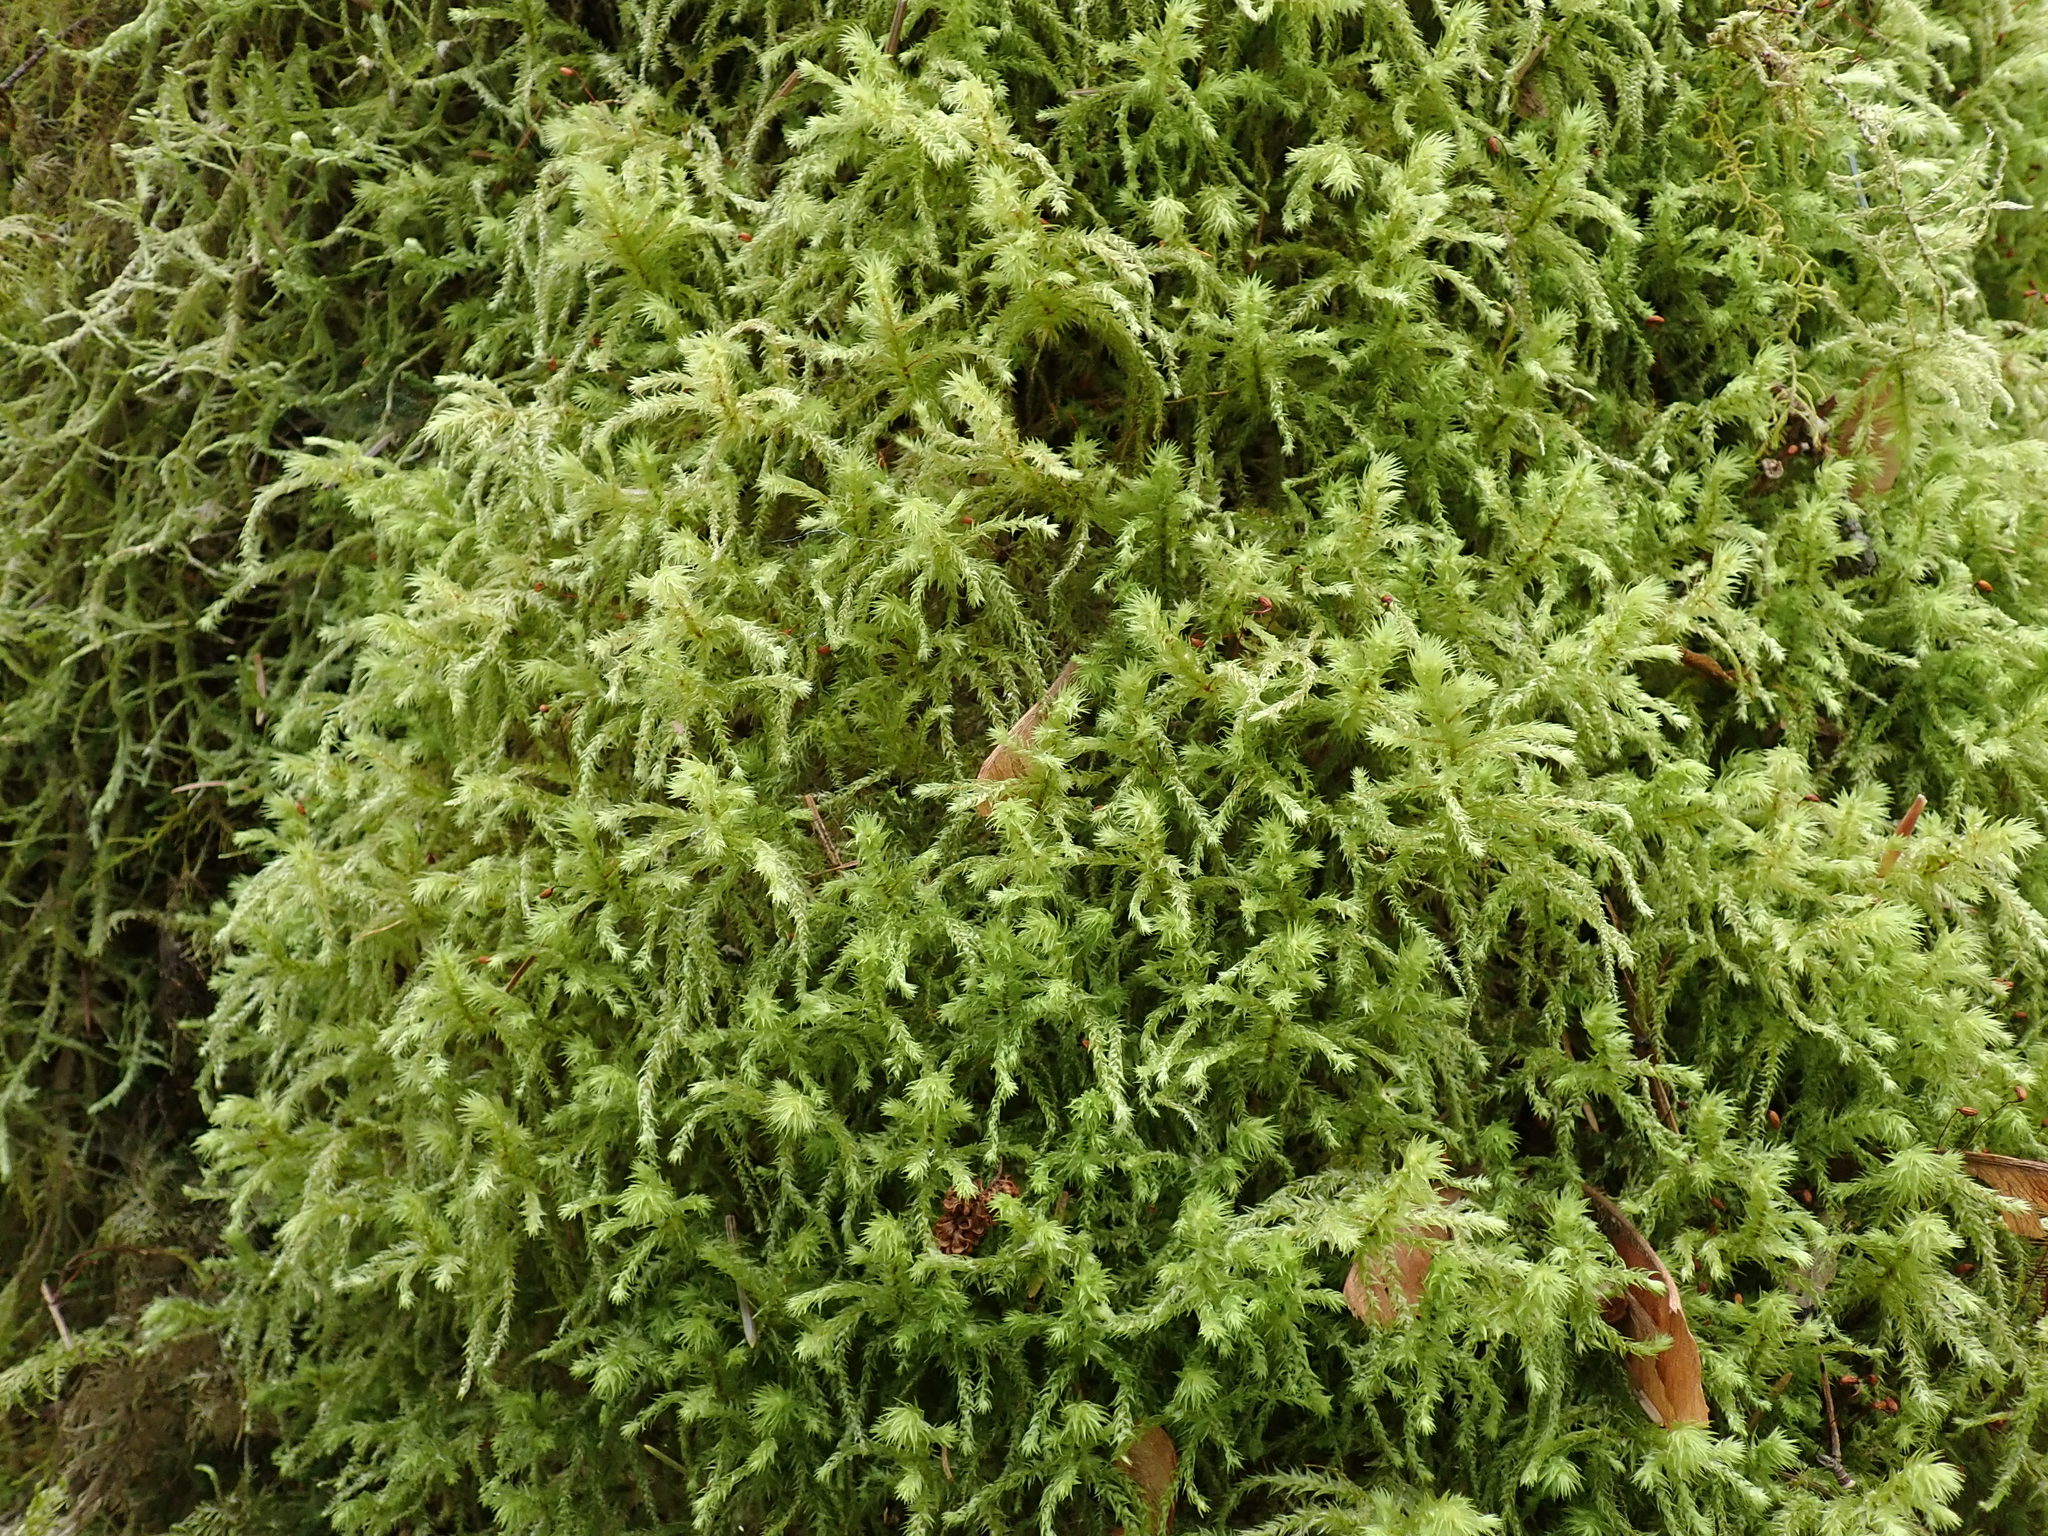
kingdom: Plantae
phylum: Bryophyta
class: Bryopsida
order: Hypnales
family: Hylocomiaceae
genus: Hylocomiadelphus
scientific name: Hylocomiadelphus triquetrus
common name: Rough goose neck moss
